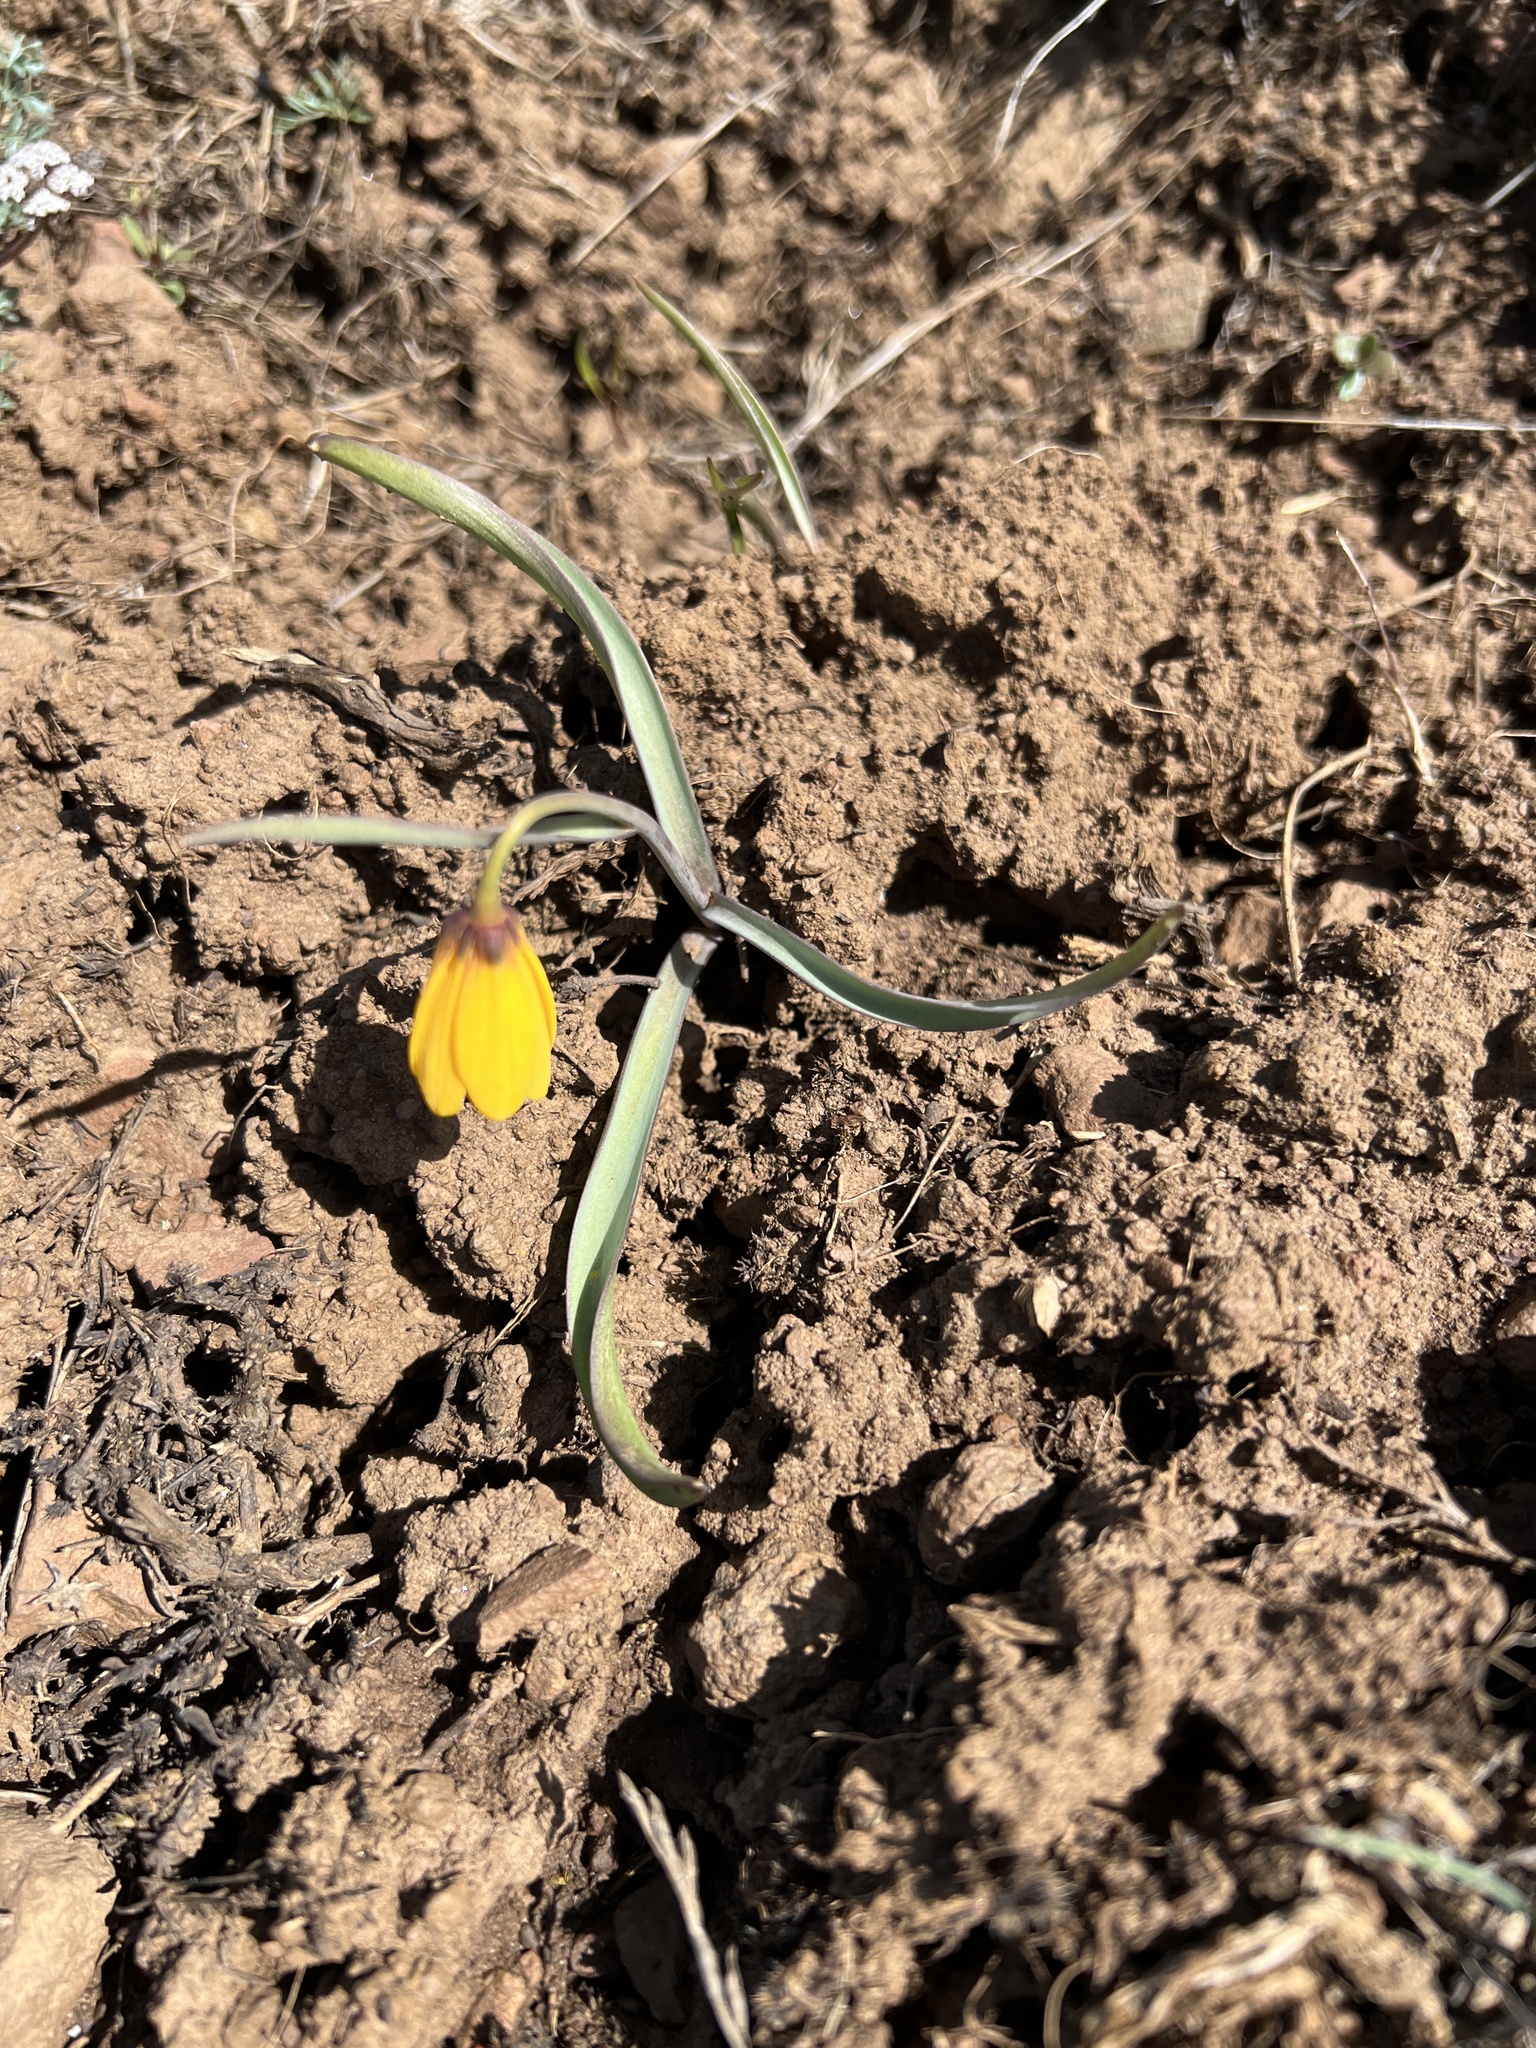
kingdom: Plantae
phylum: Tracheophyta
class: Liliopsida
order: Liliales
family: Liliaceae
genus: Fritillaria
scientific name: Fritillaria pudica
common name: Yellow fritillary
